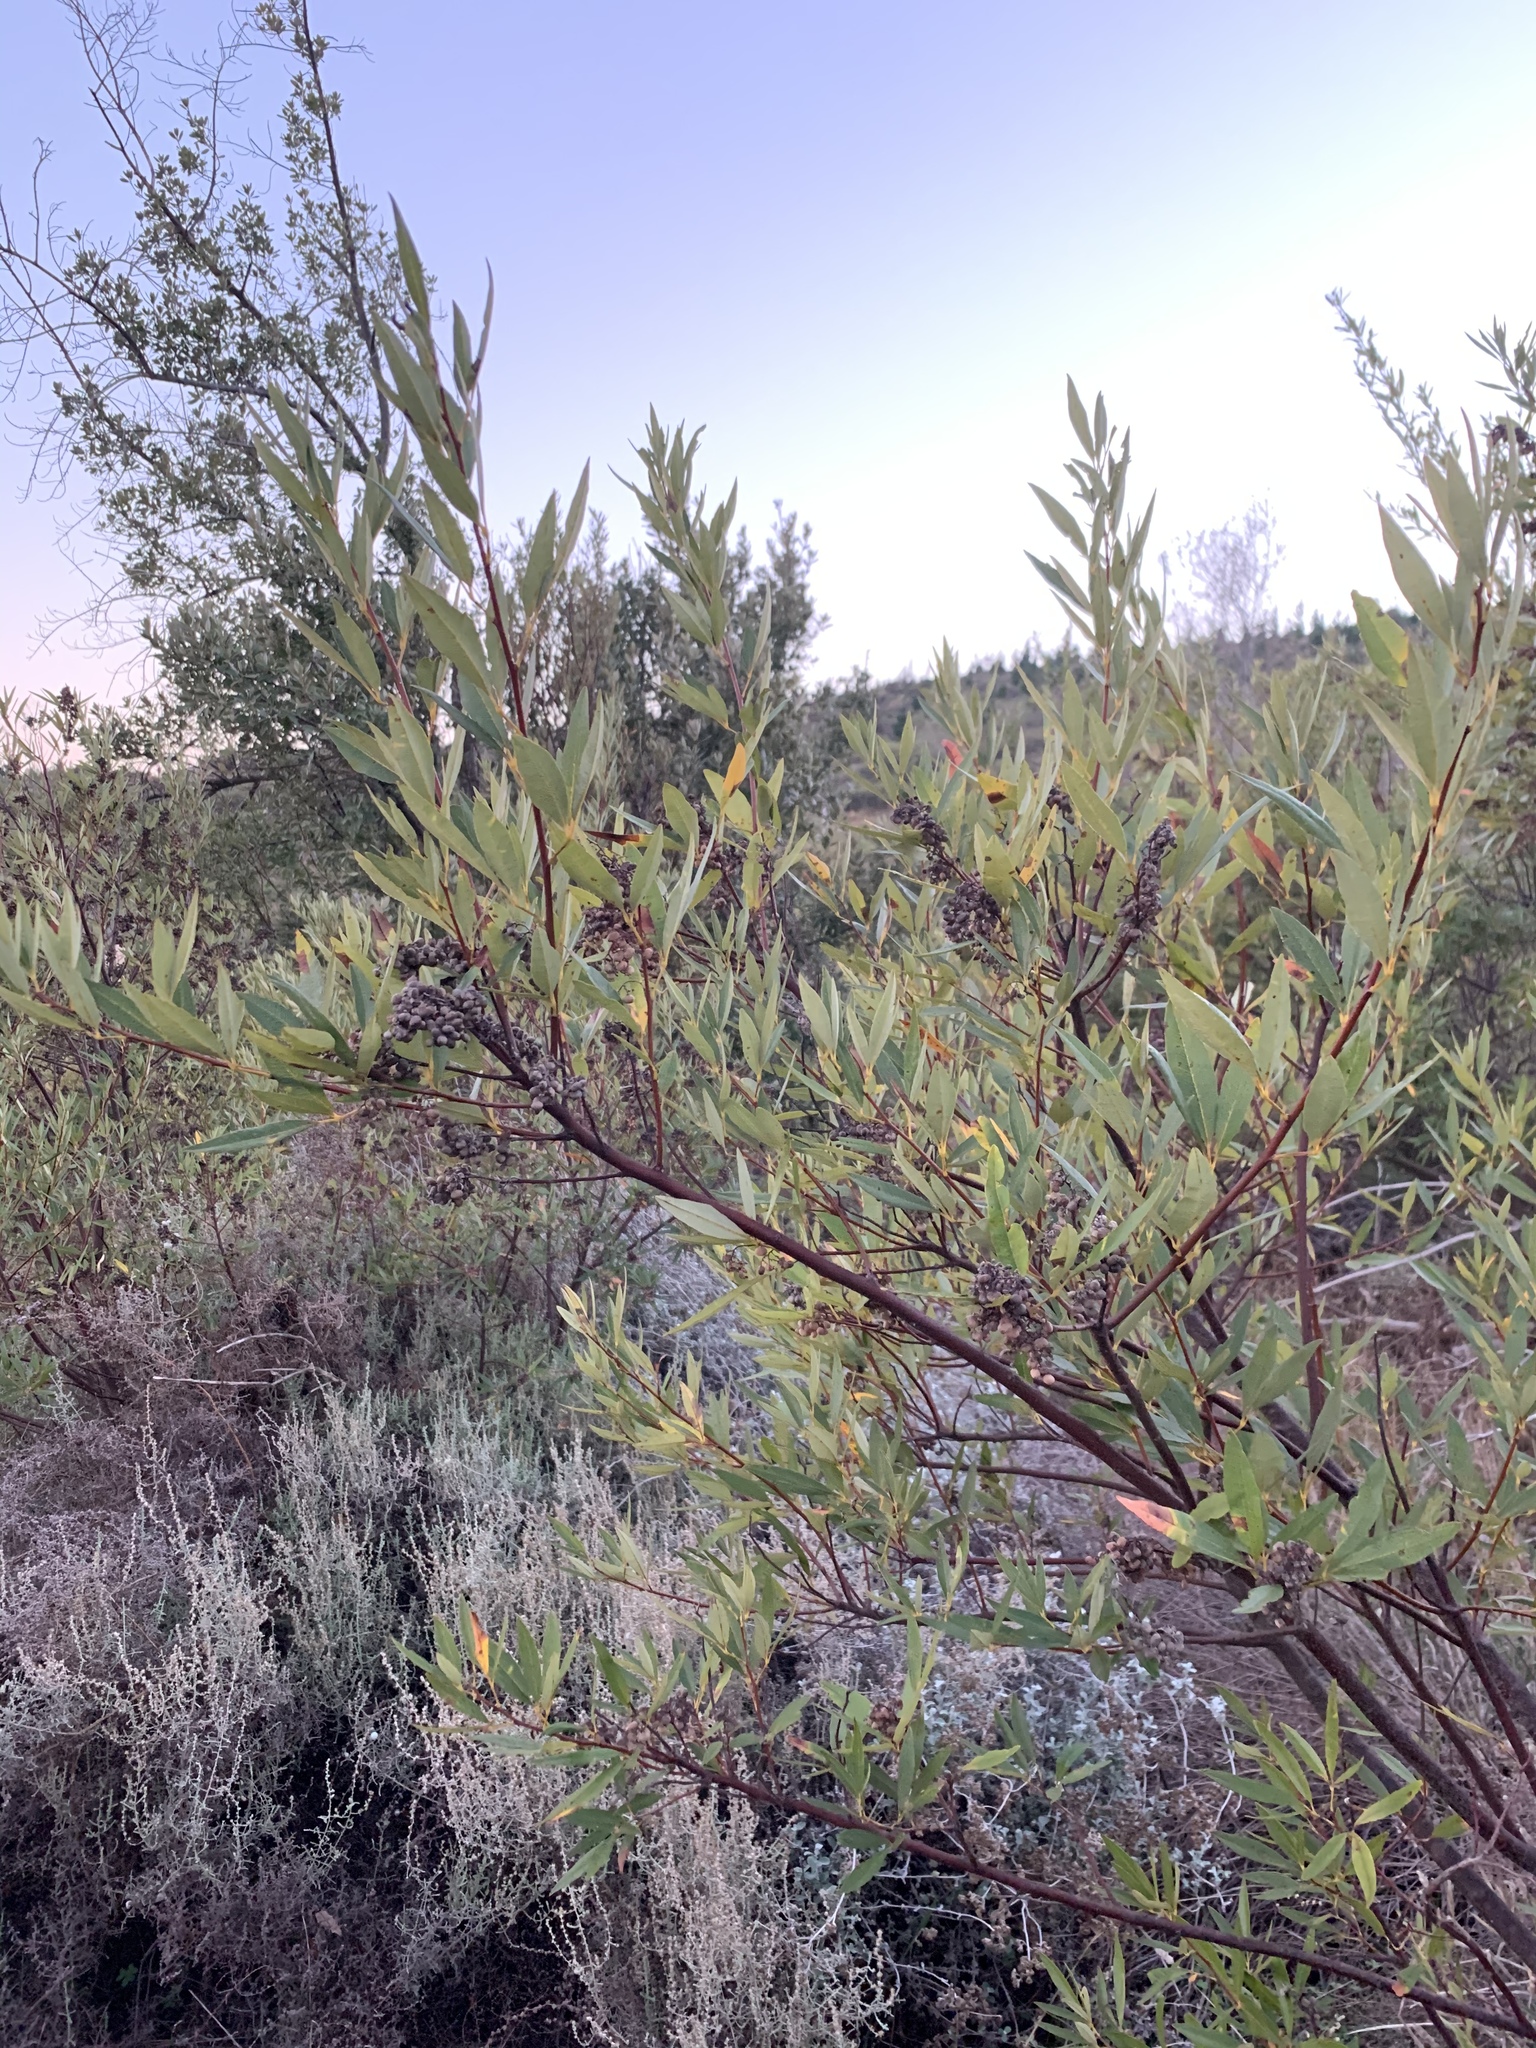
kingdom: Plantae
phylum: Tracheophyta
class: Magnoliopsida
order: Sapindales
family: Anacardiaceae
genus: Searsia
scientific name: Searsia angustifolia
